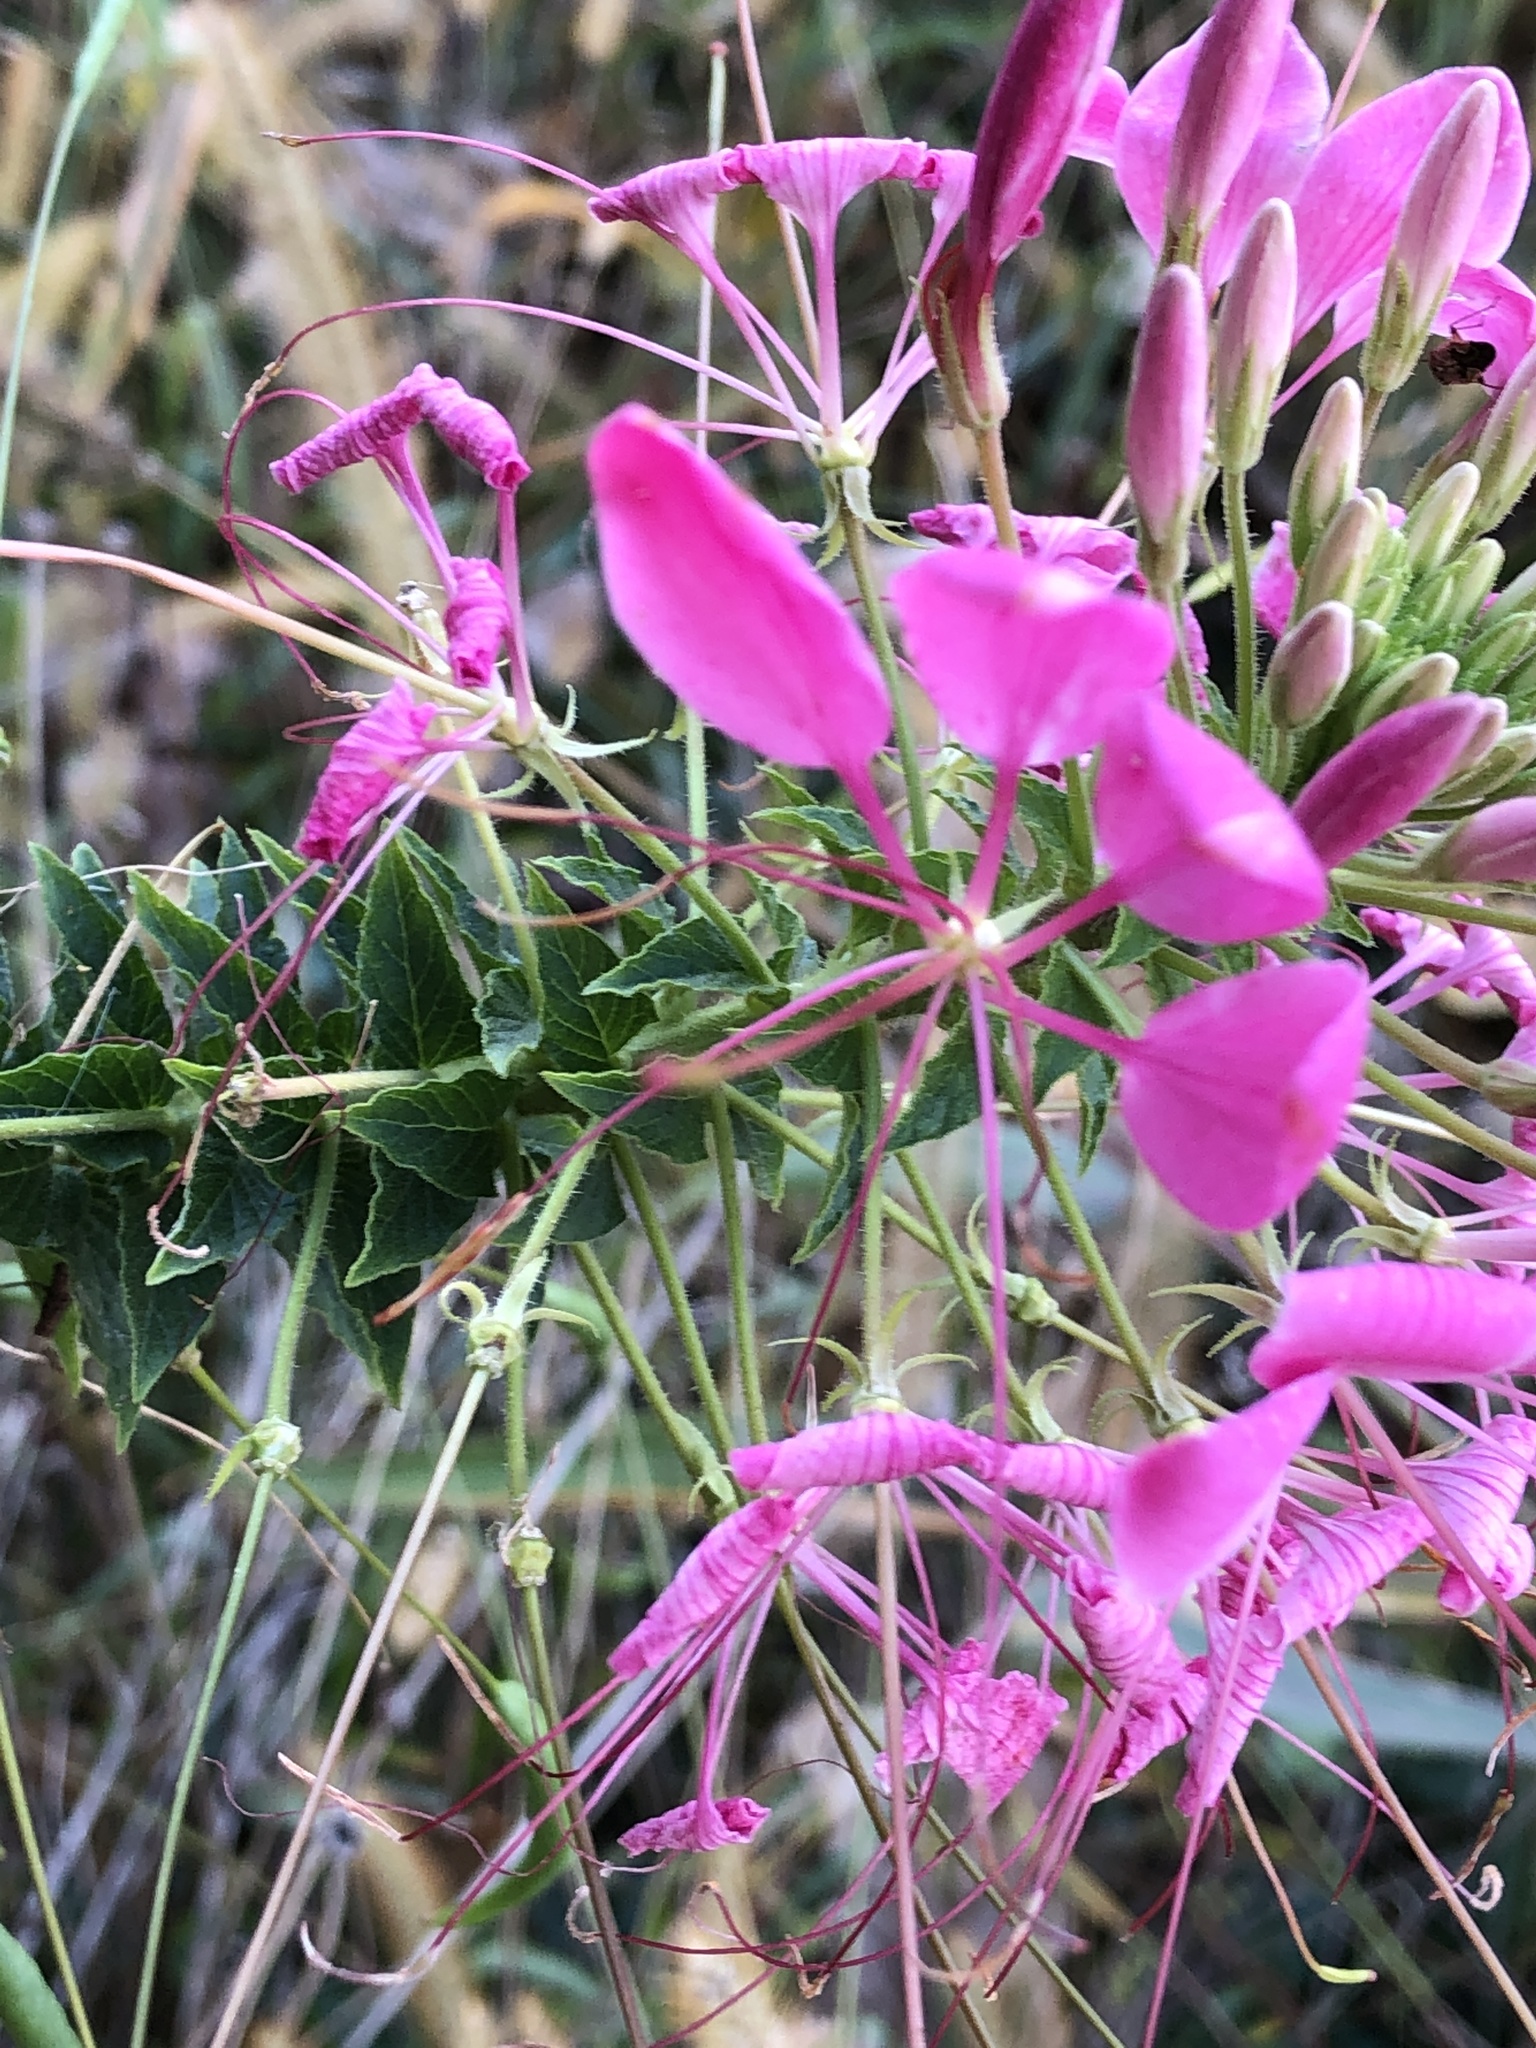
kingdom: Plantae
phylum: Tracheophyta
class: Magnoliopsida
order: Brassicales
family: Cleomaceae
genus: Tarenaya
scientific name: Tarenaya houtteana
